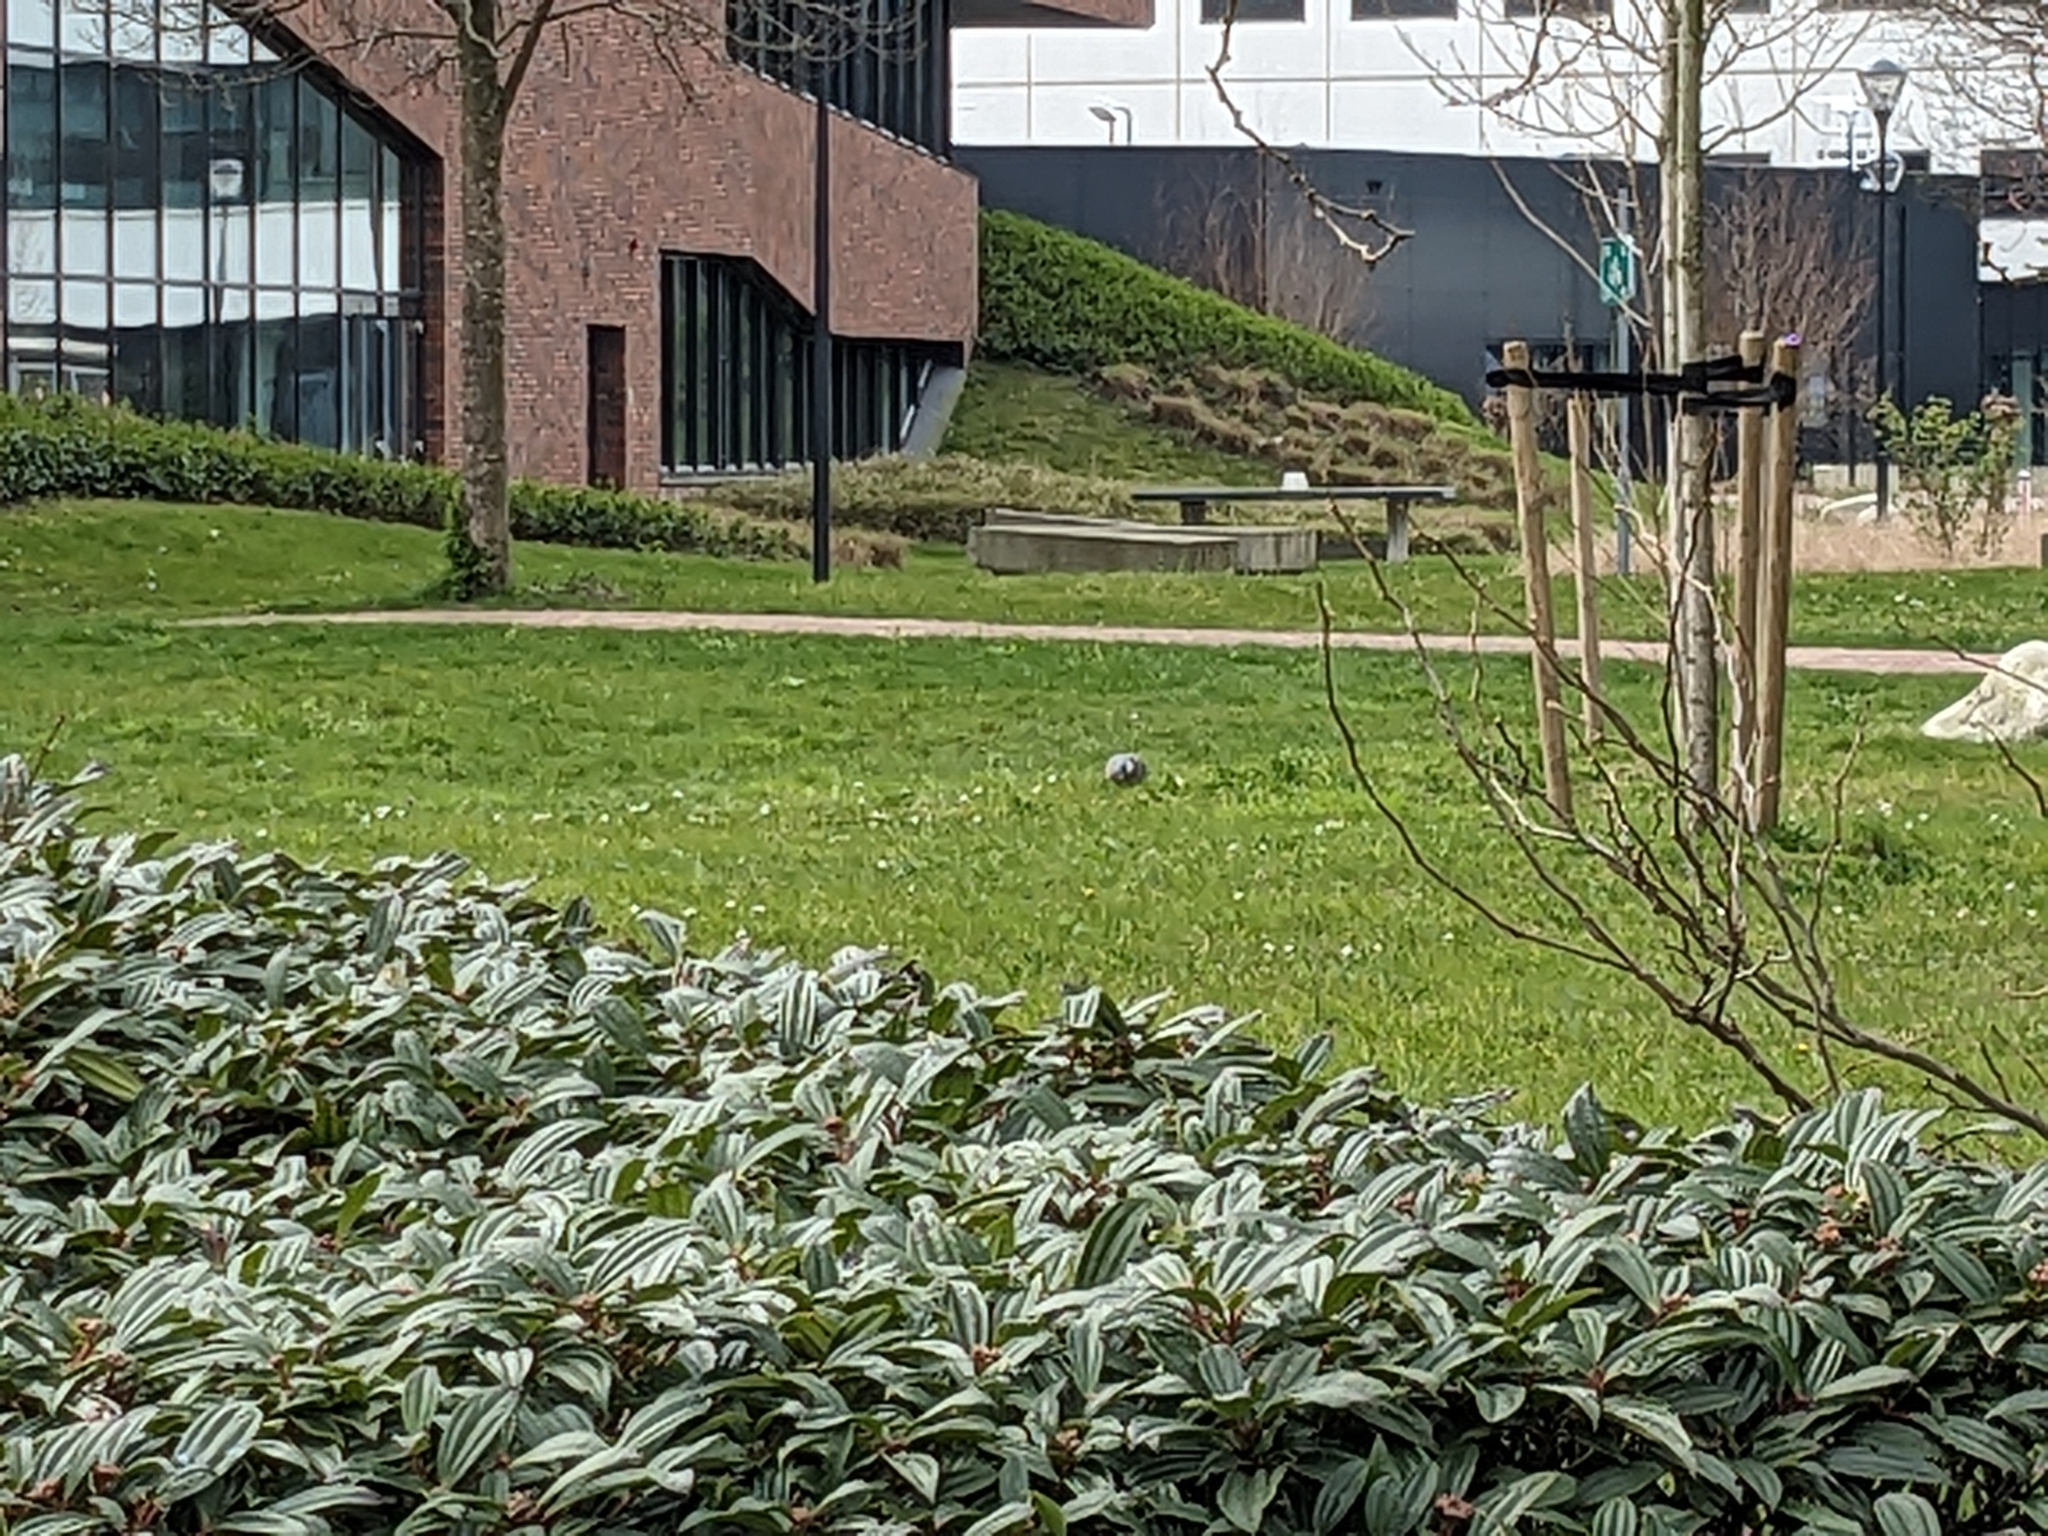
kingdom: Animalia
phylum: Chordata
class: Aves
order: Columbiformes
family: Columbidae
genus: Columba
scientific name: Columba palumbus
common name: Common wood pigeon
